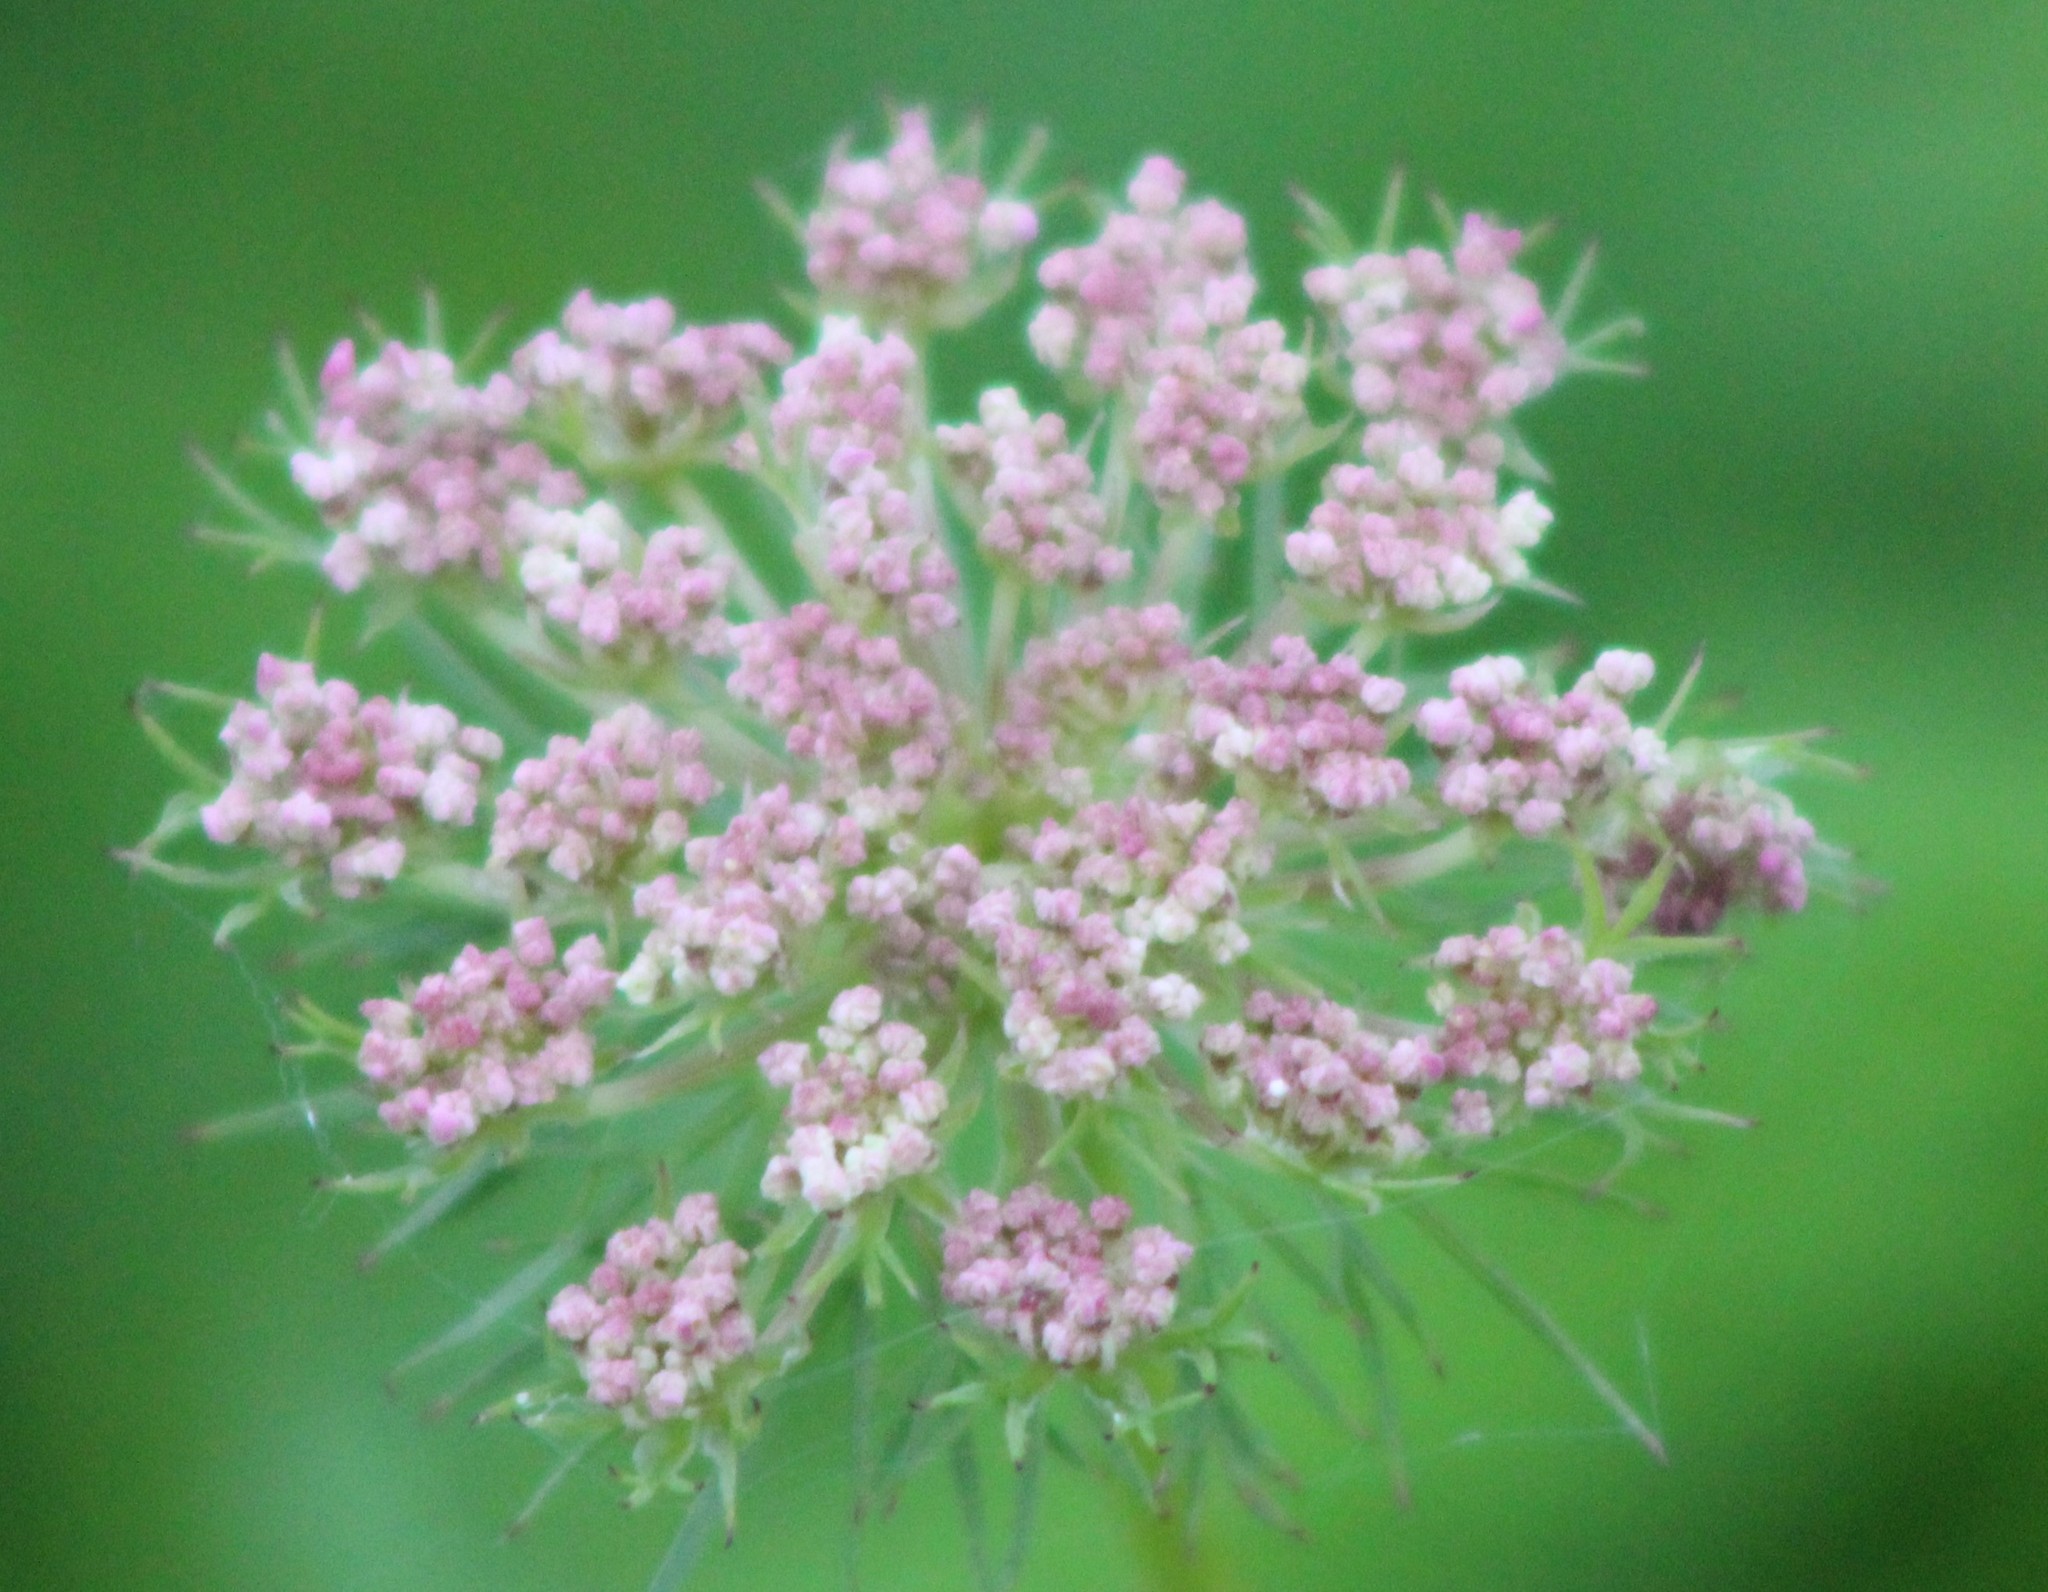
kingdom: Plantae
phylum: Tracheophyta
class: Magnoliopsida
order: Apiales
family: Apiaceae
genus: Daucus
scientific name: Daucus carota
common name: Wild carrot
